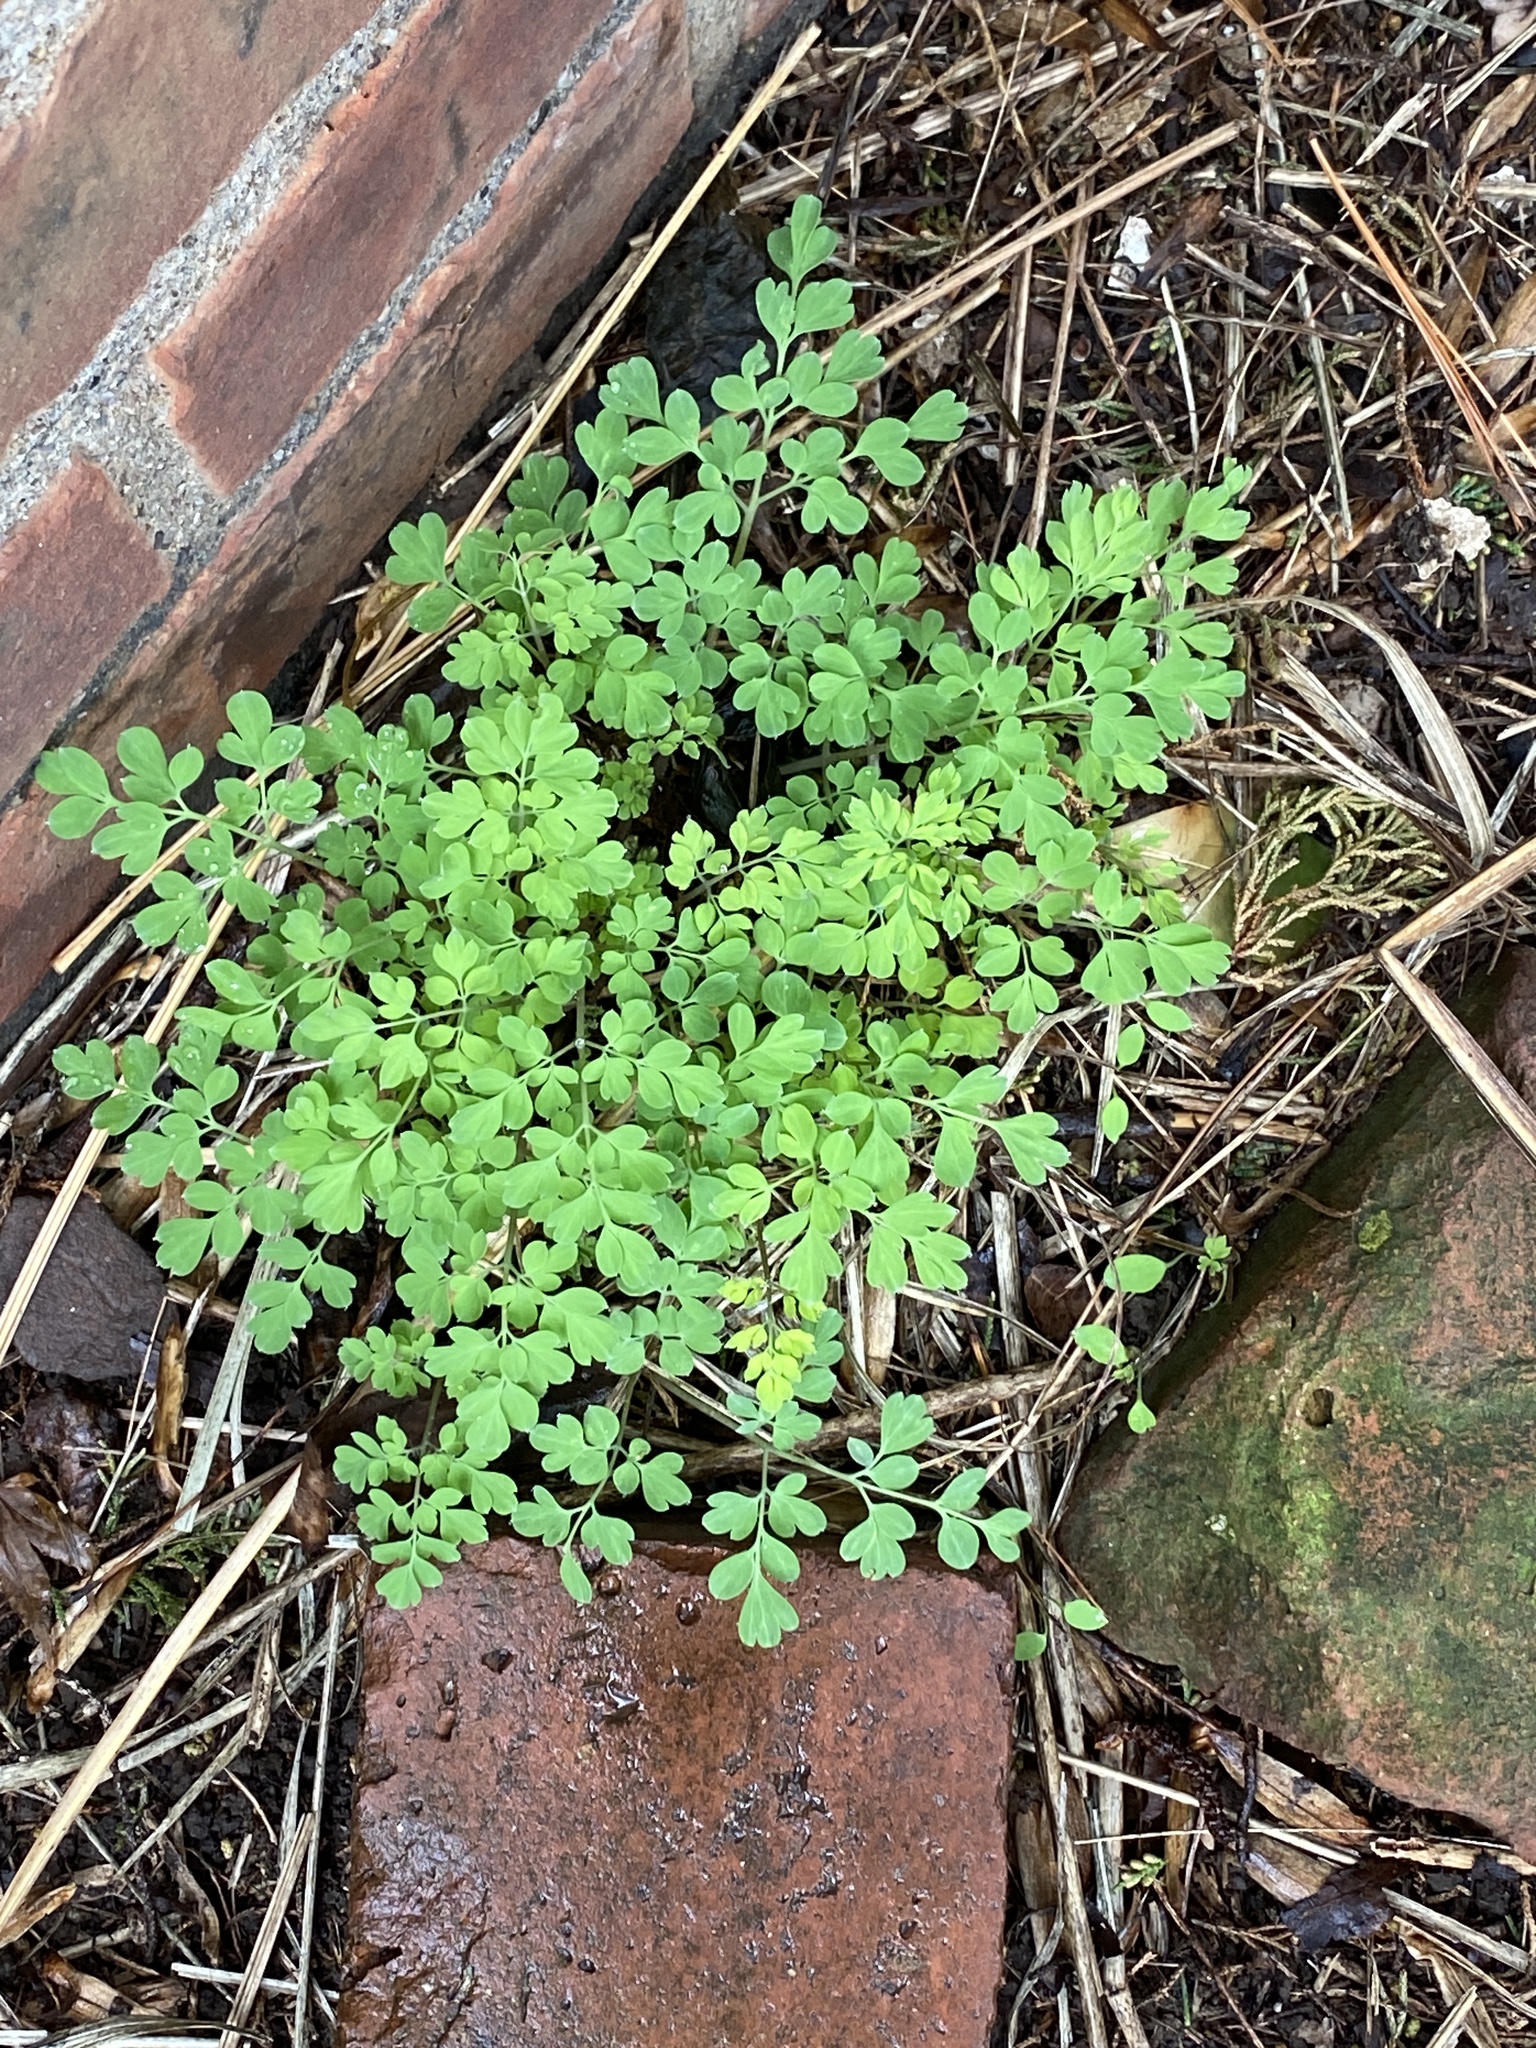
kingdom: Plantae
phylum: Tracheophyta
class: Magnoliopsida
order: Ranunculales
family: Papaveraceae
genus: Pseudofumaria
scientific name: Pseudofumaria lutea
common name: Yellow corydalis
